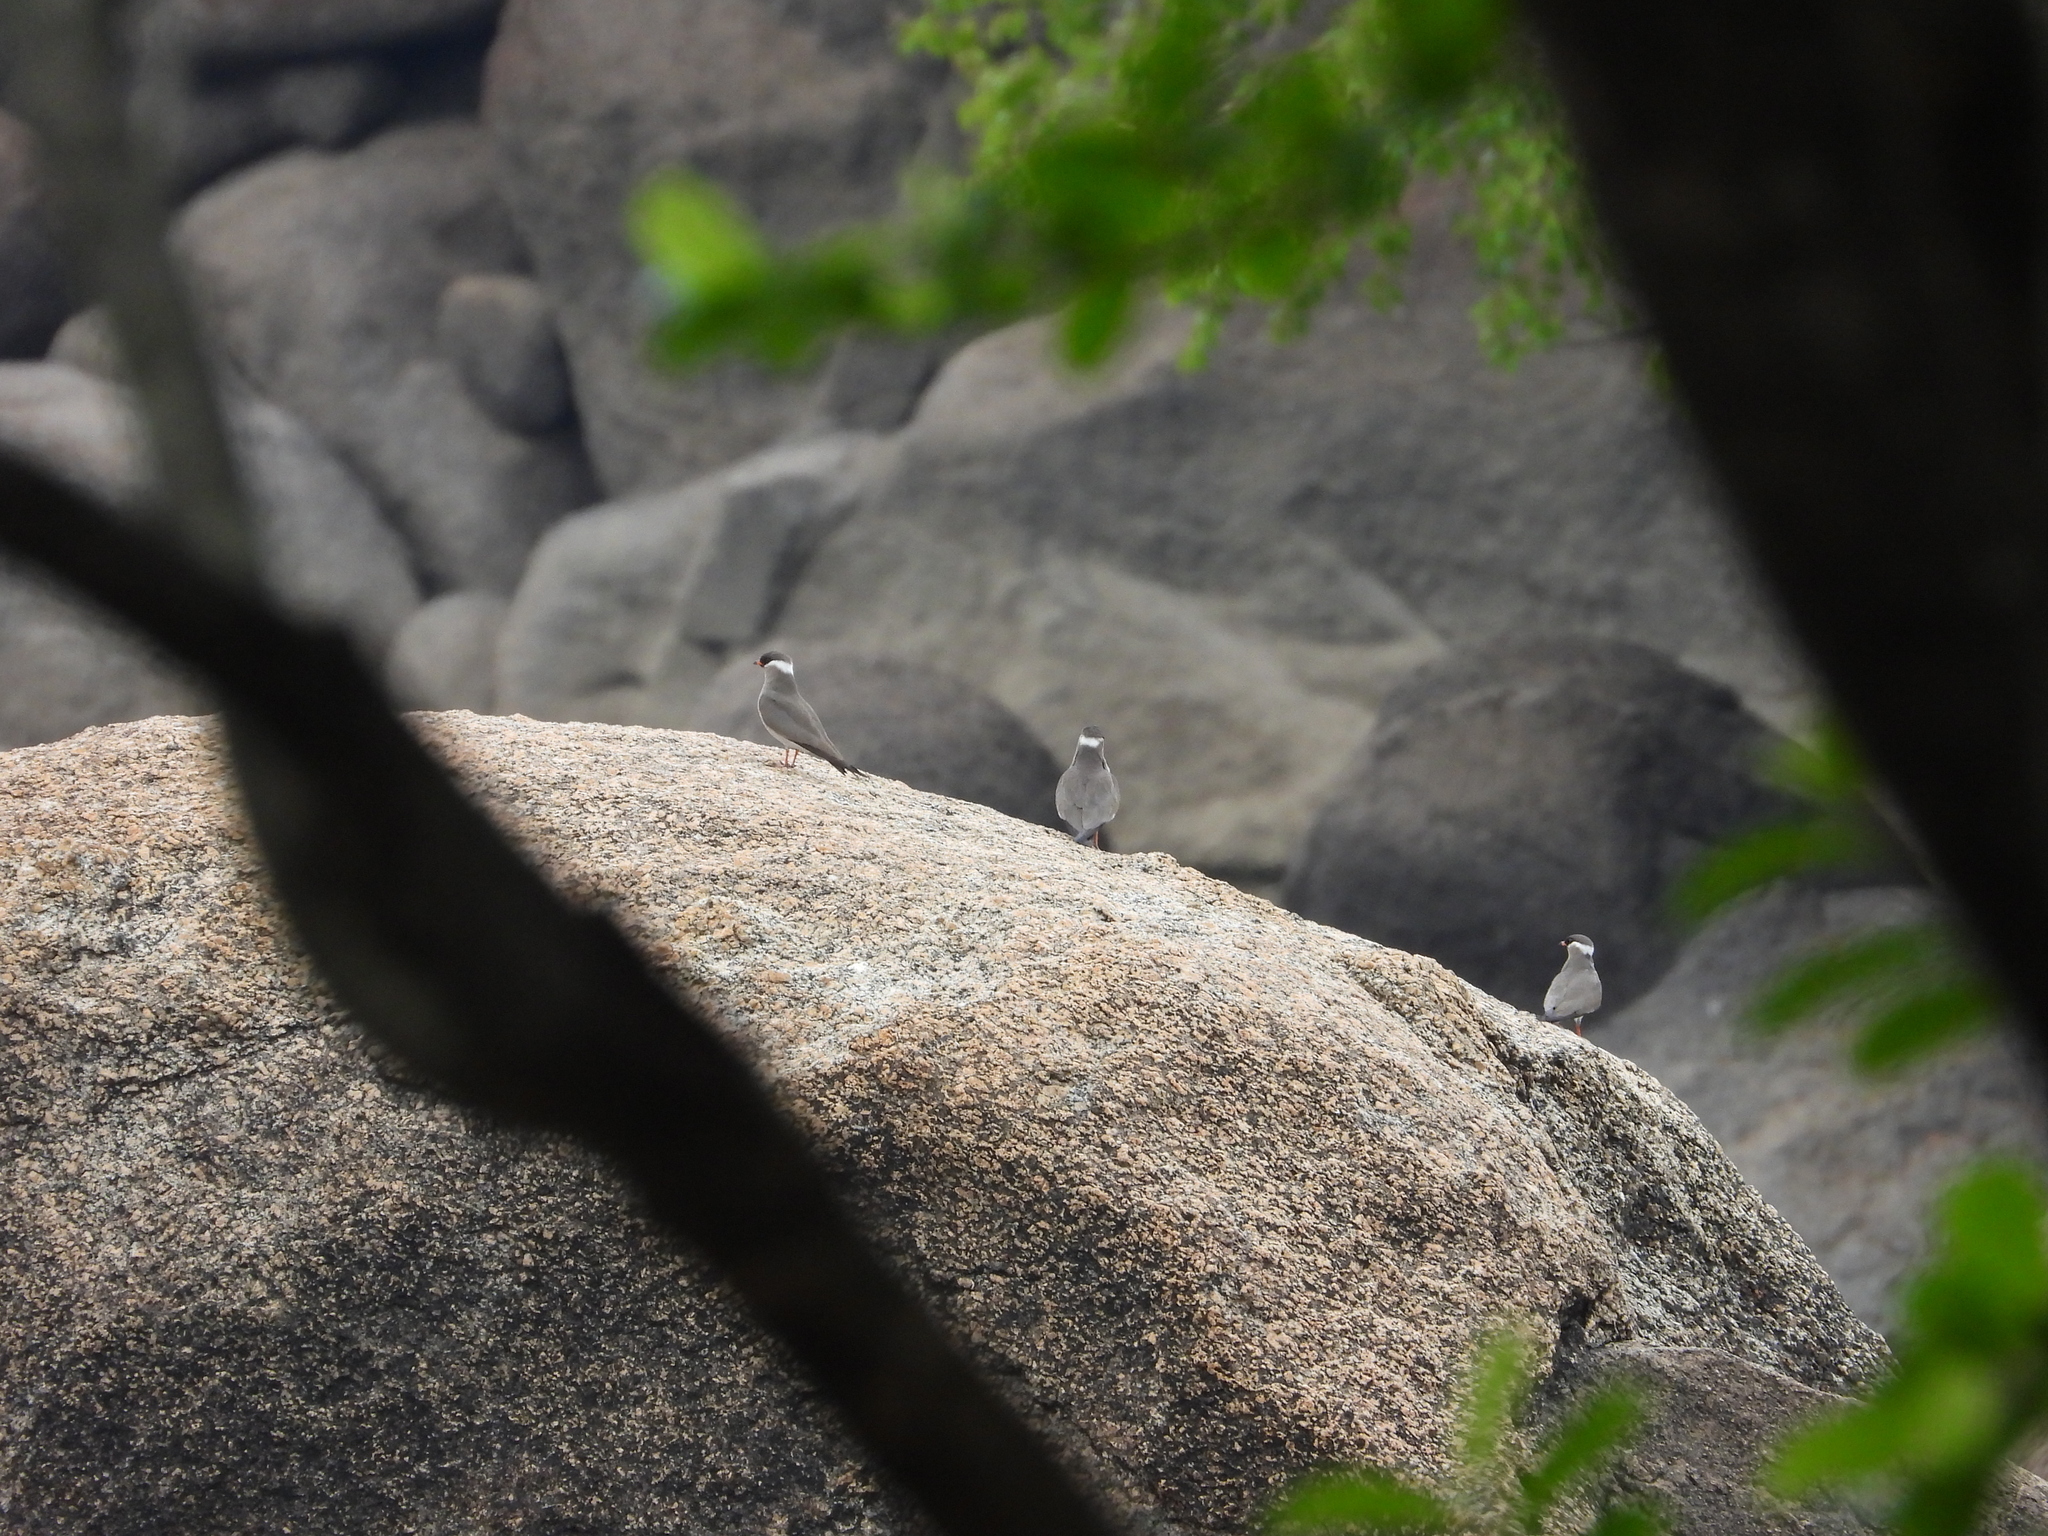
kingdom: Animalia
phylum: Chordata
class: Aves
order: Charadriiformes
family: Glareolidae
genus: Glareola
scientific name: Glareola nuchalis
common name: Rock pratincole
